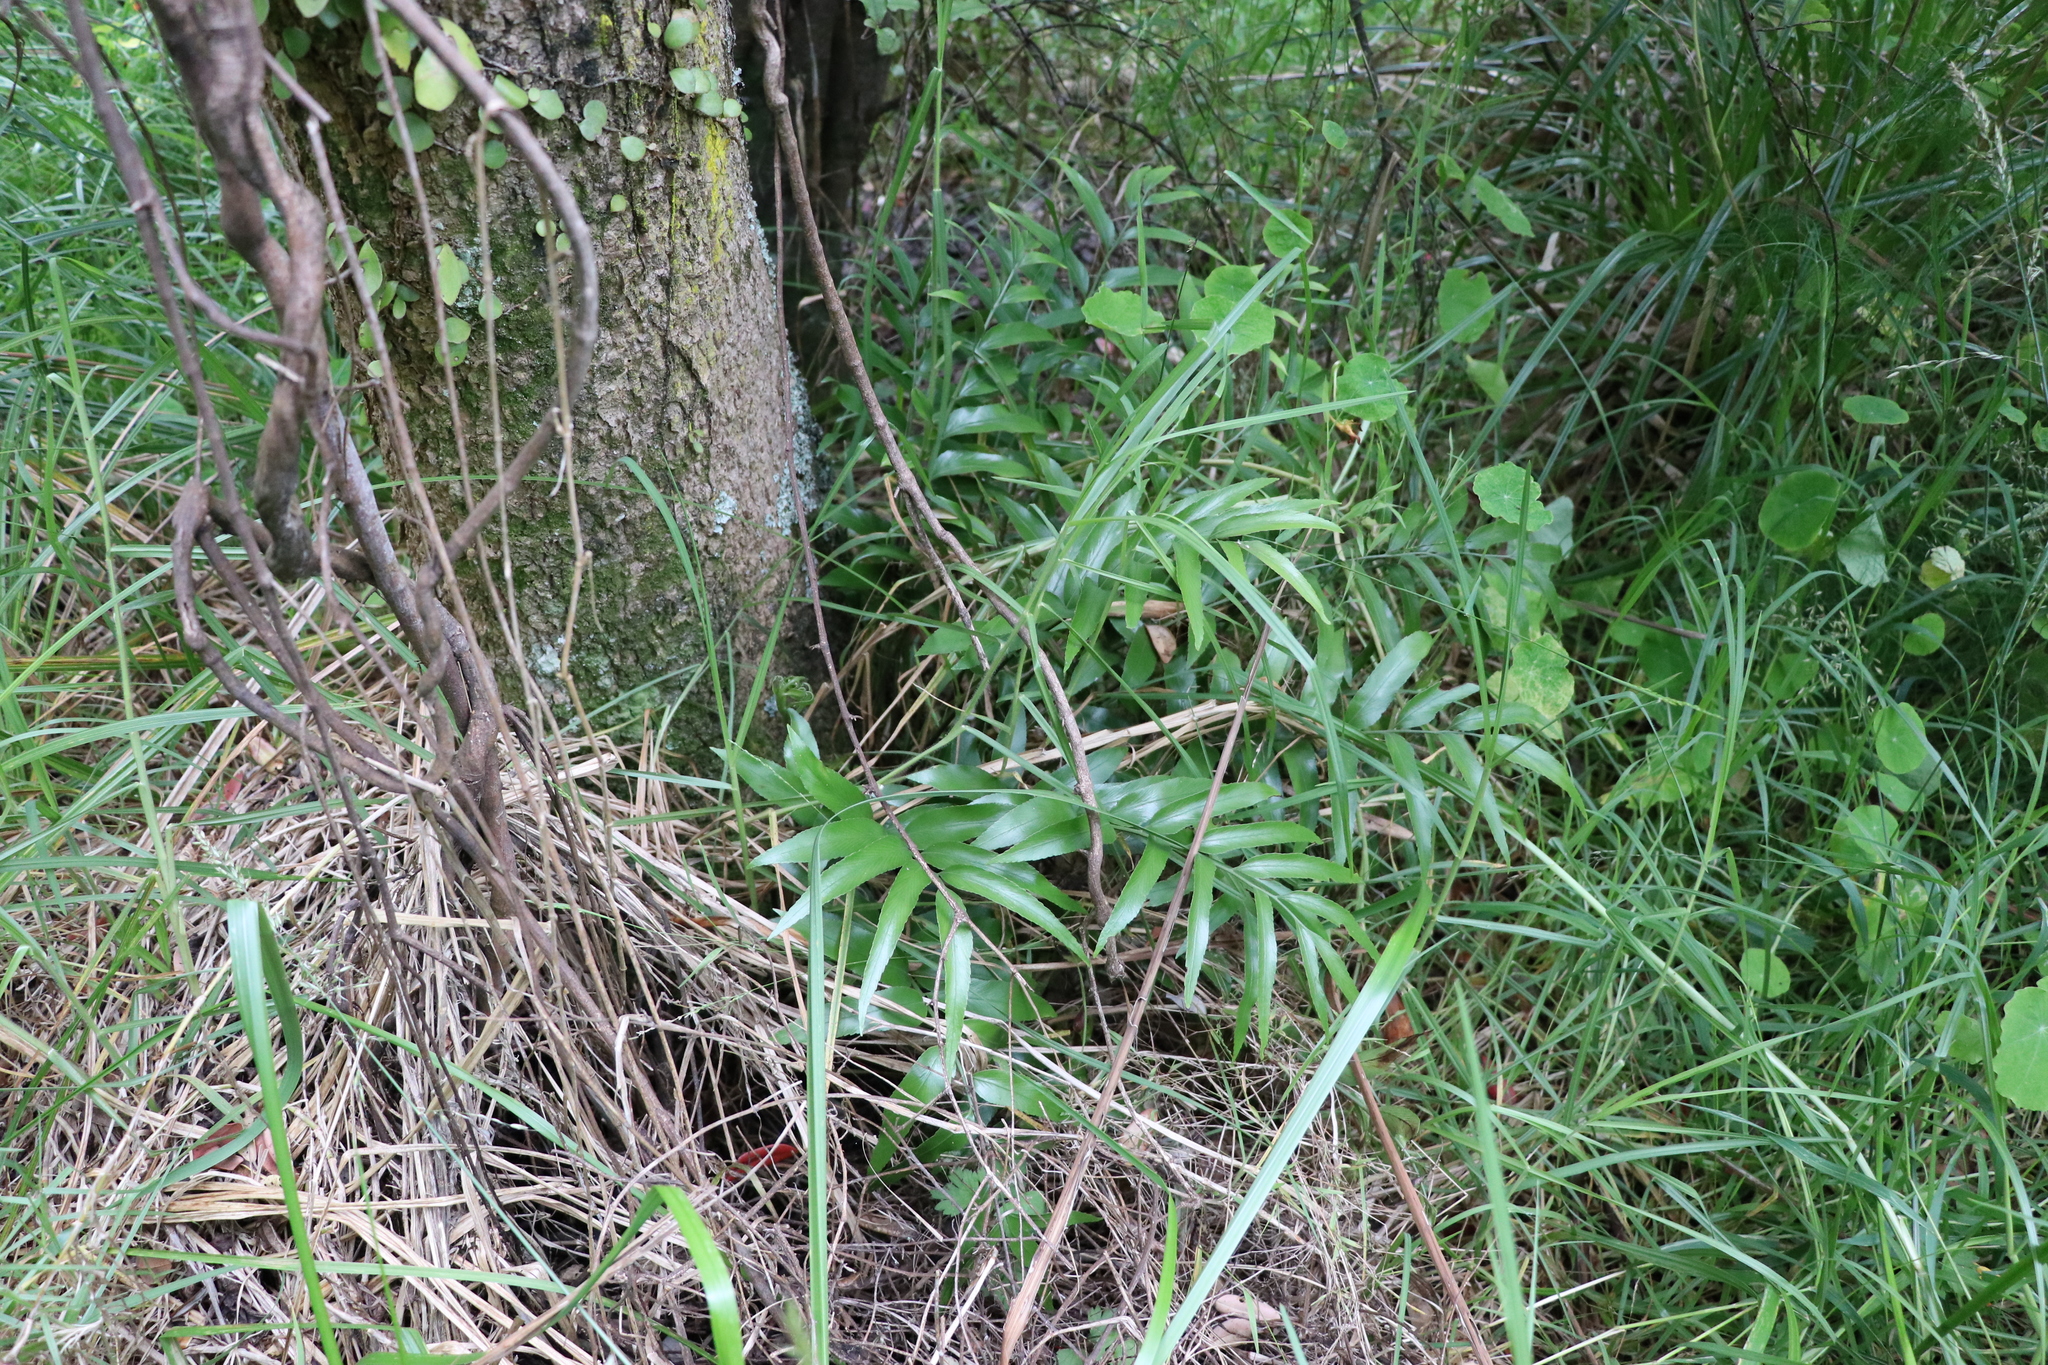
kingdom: Plantae
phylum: Tracheophyta
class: Polypodiopsida
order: Polypodiales
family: Aspleniaceae
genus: Asplenium
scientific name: Asplenium oblongifolium
